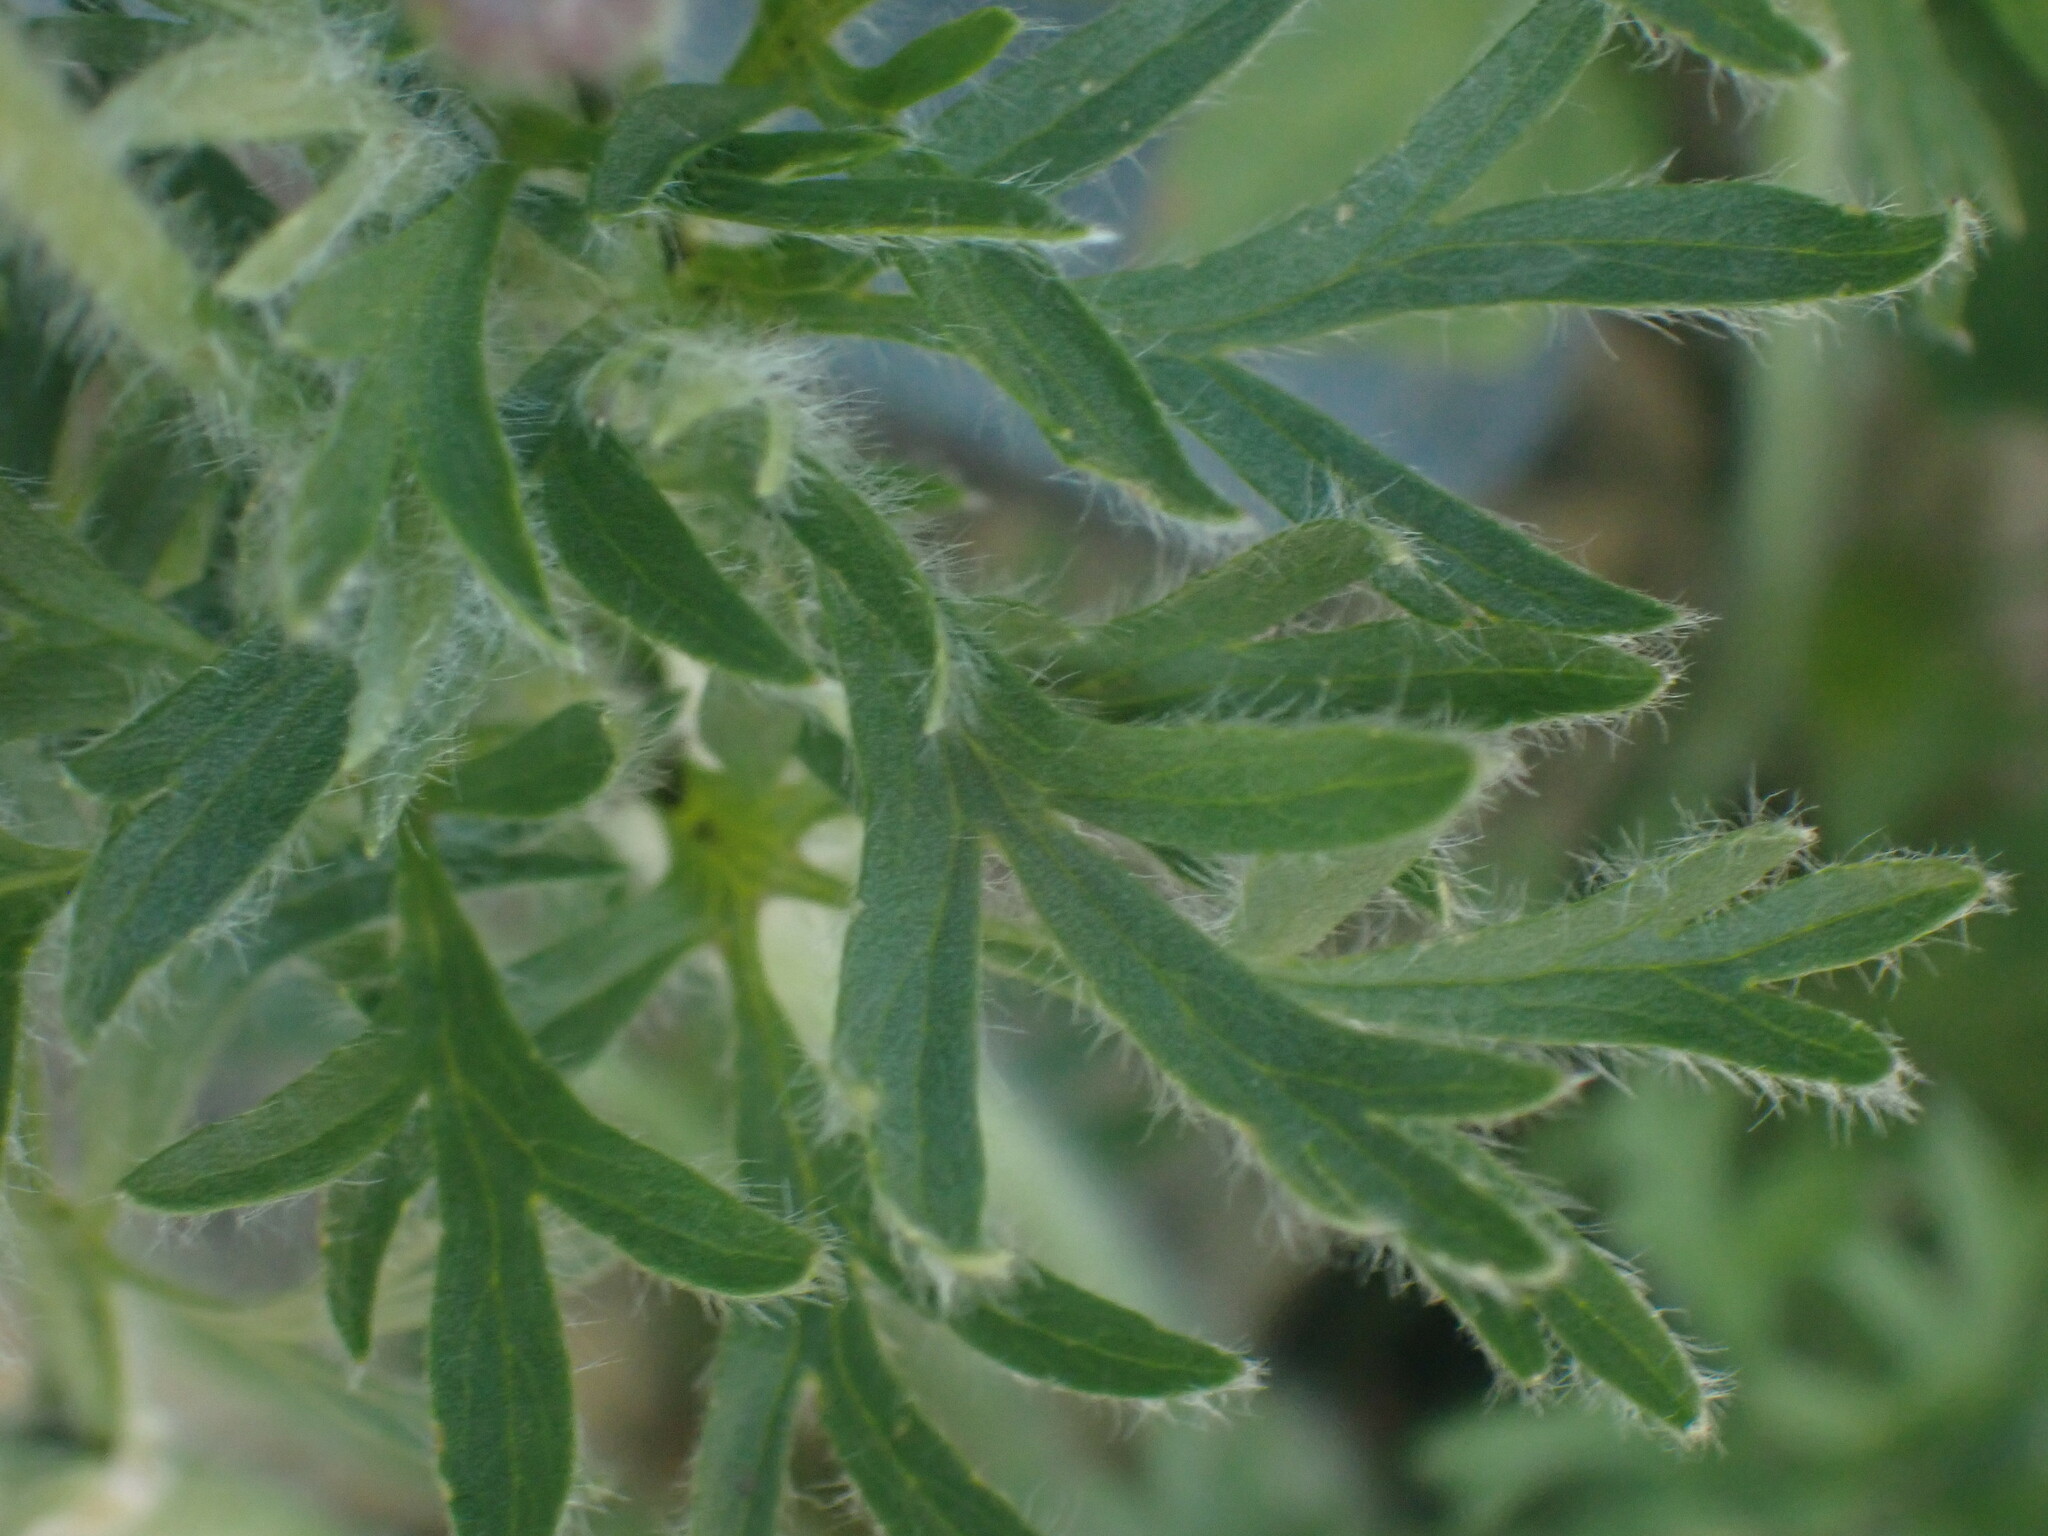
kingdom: Plantae
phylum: Tracheophyta
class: Magnoliopsida
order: Ranunculales
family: Ranunculaceae
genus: Anemone
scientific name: Anemone multifida
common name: Bird's-foot anemone
